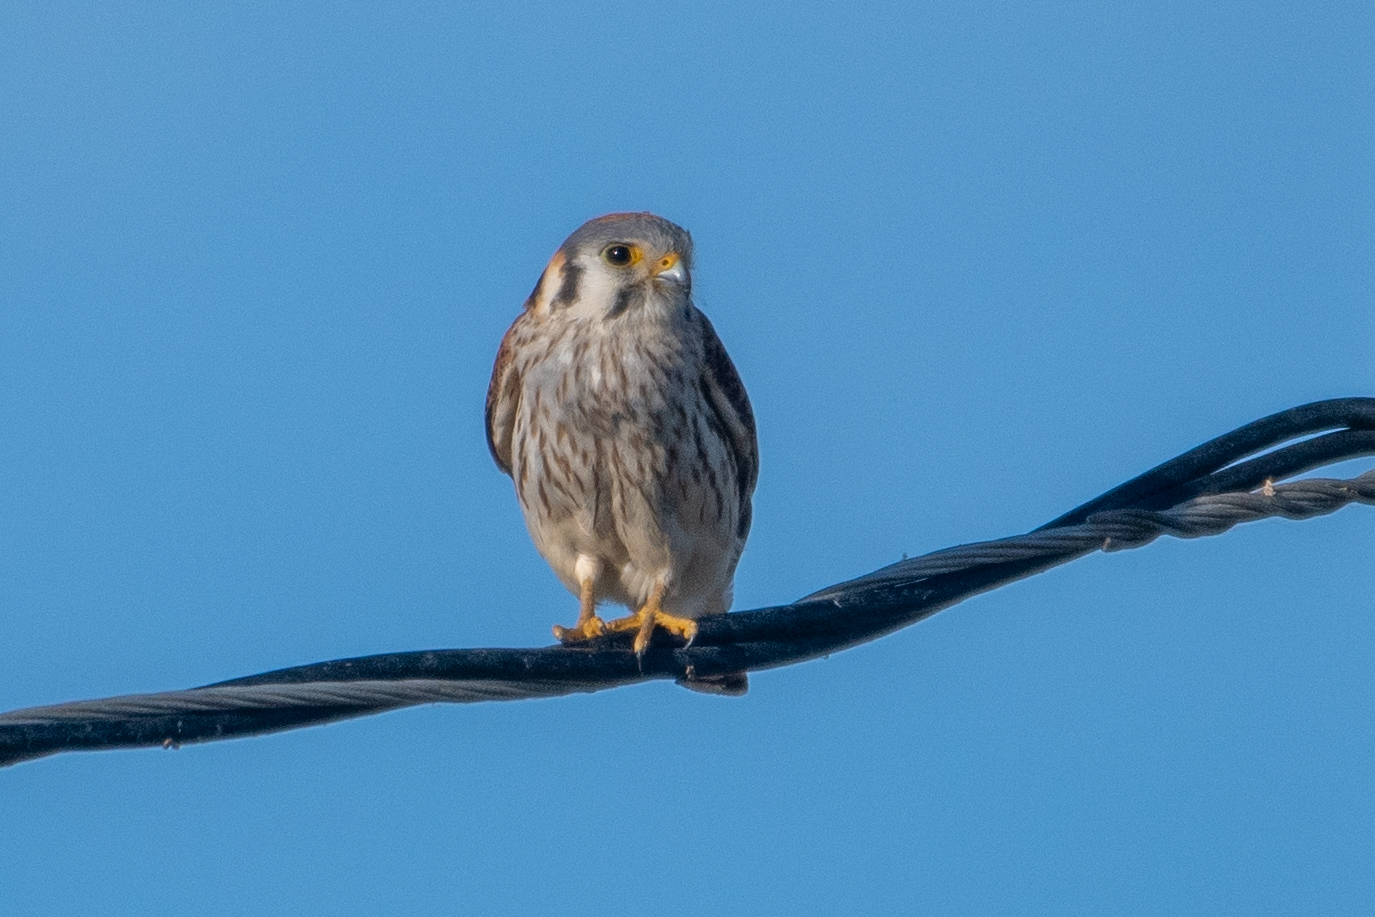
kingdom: Animalia
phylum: Chordata
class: Aves
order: Falconiformes
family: Falconidae
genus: Falco
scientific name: Falco sparverius
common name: American kestrel
